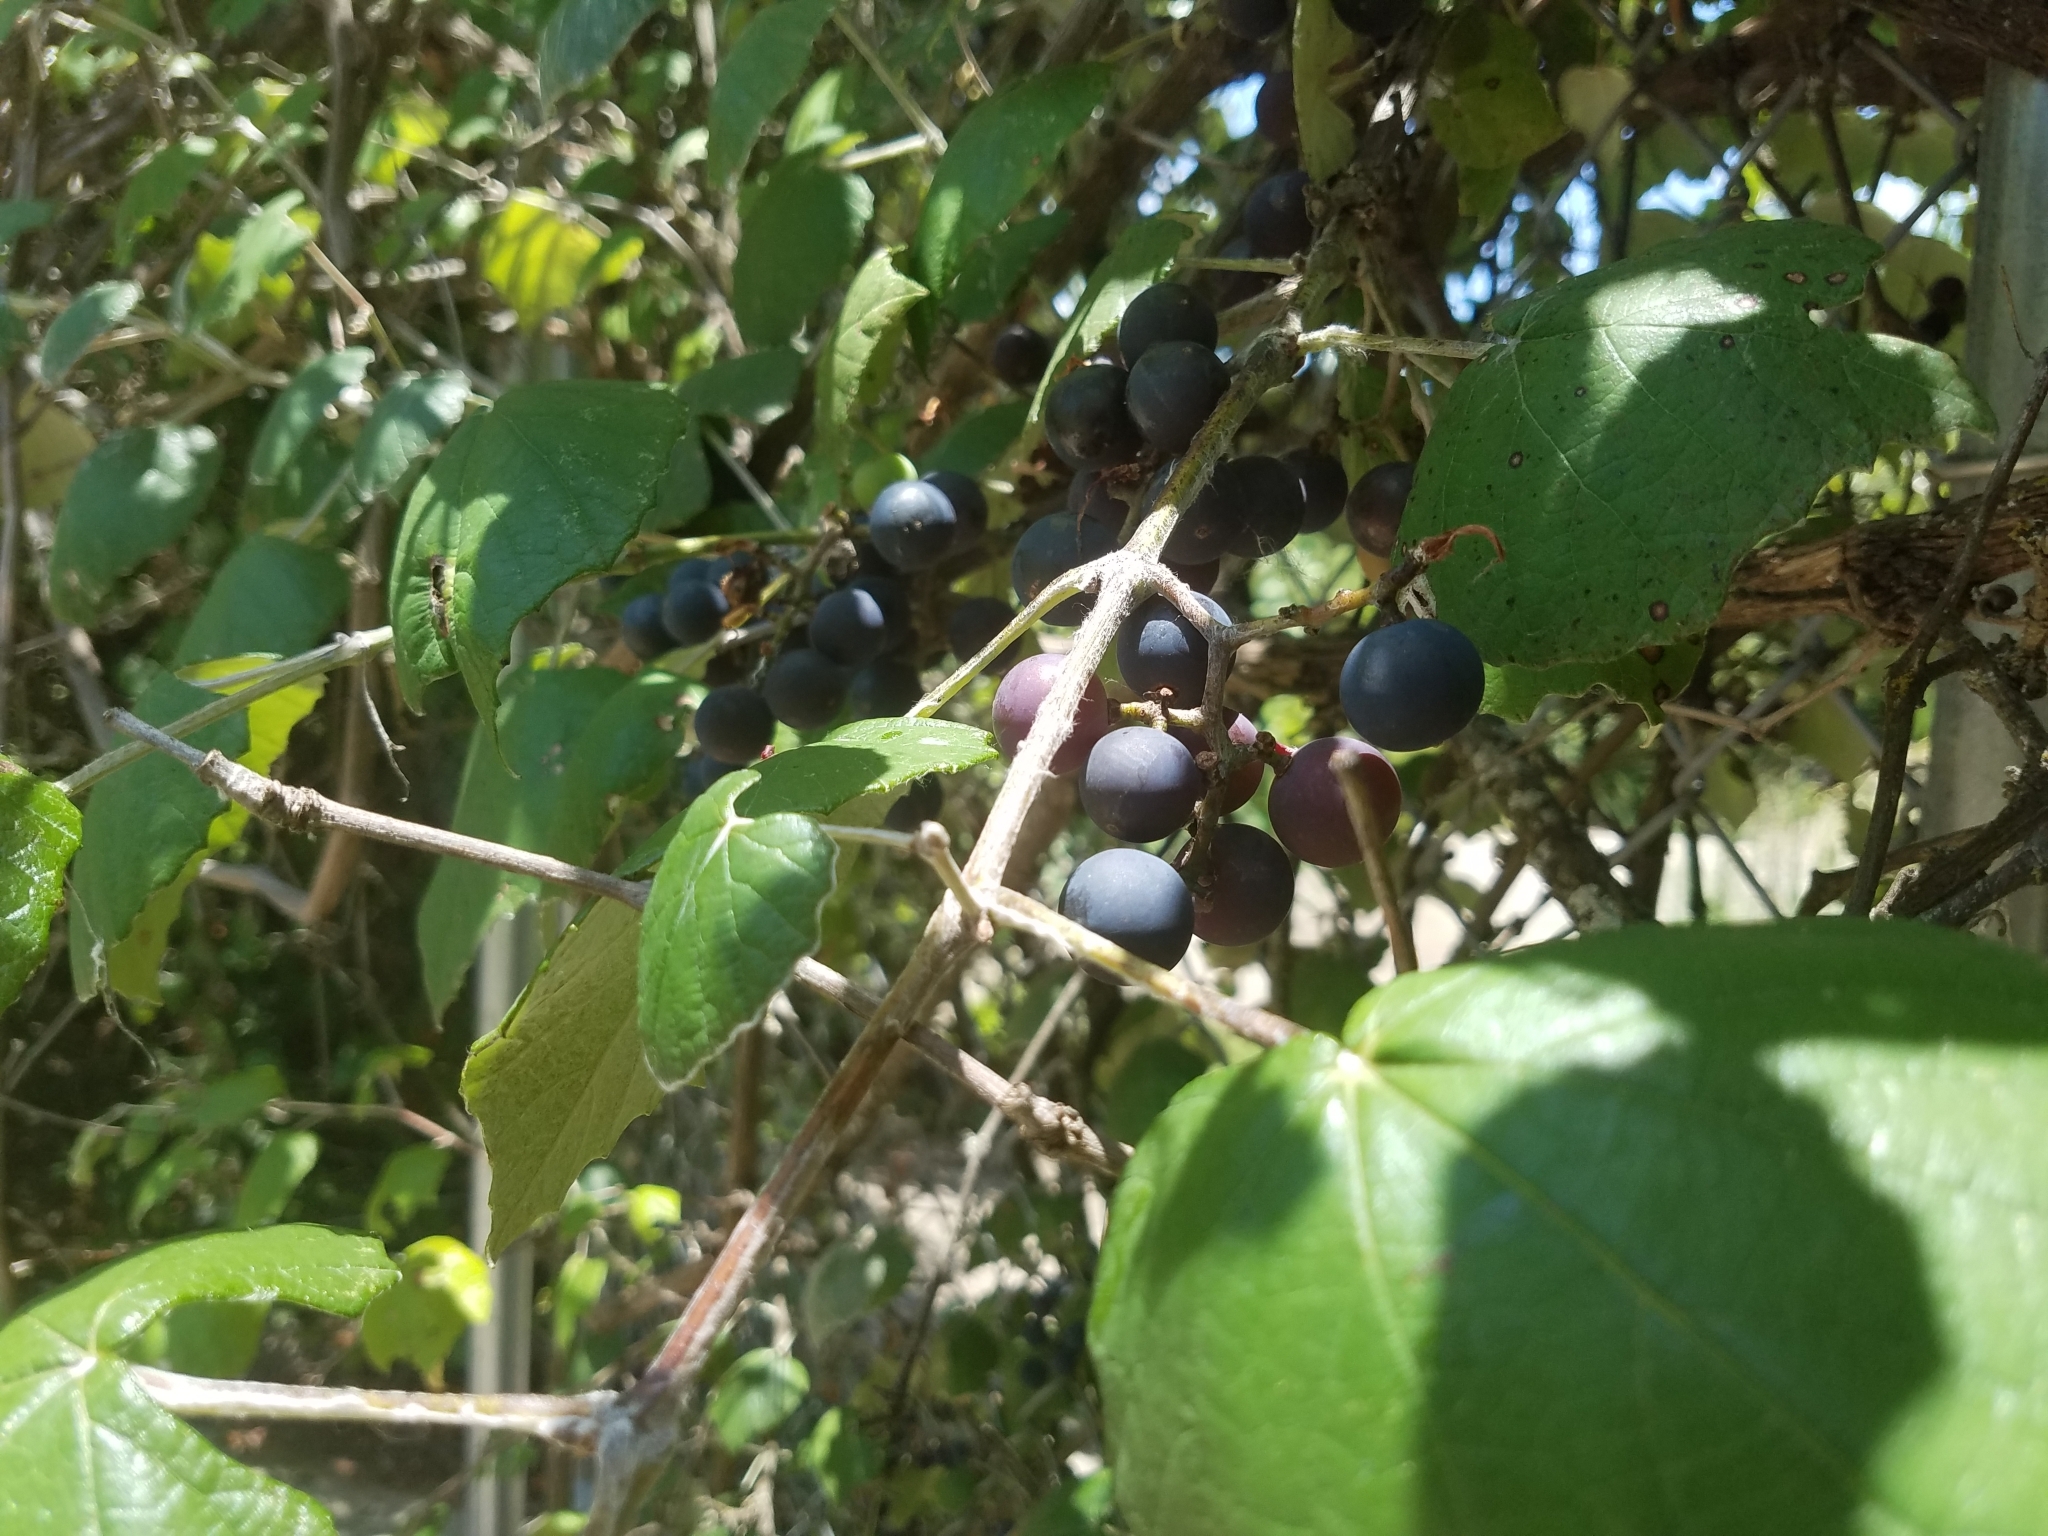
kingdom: Plantae
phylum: Tracheophyta
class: Magnoliopsida
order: Vitales
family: Vitaceae
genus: Vitis
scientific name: Vitis mustangensis
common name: Mustang grape
